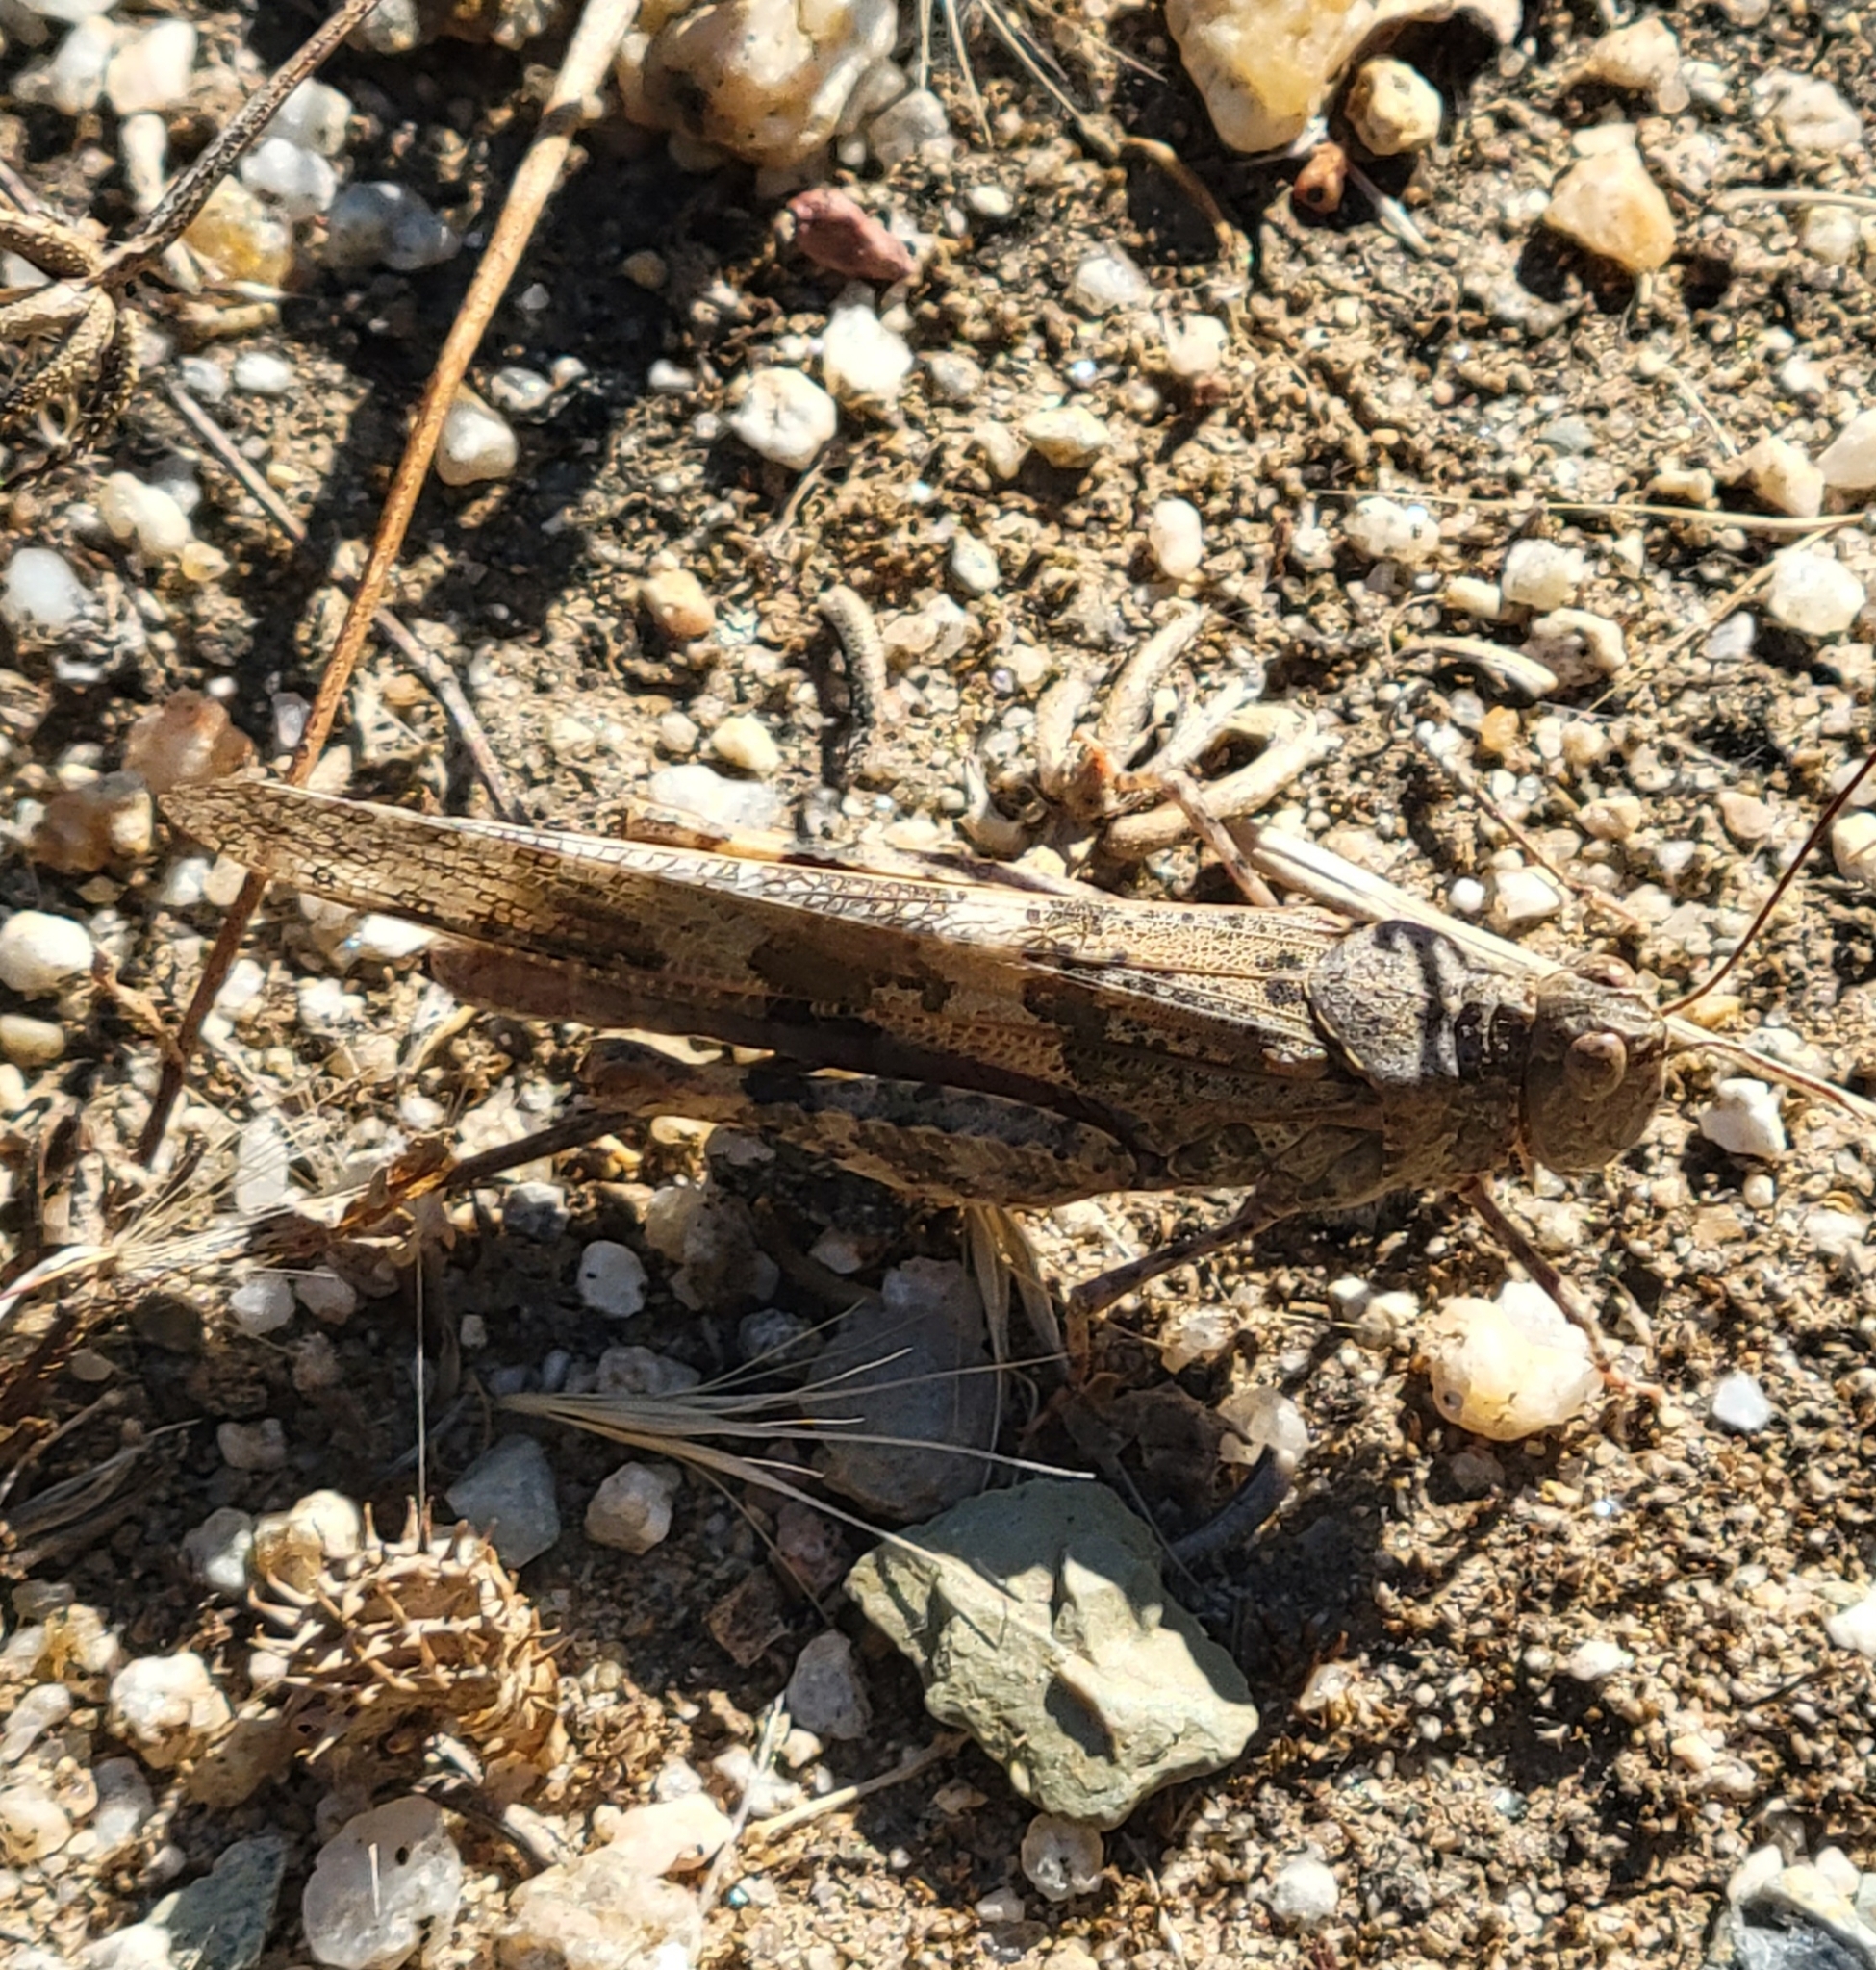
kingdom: Animalia
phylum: Arthropoda
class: Insecta
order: Orthoptera
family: Acrididae
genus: Trimerotropis
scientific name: Trimerotropis pallidipennis
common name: Pallid-winged grasshopper
